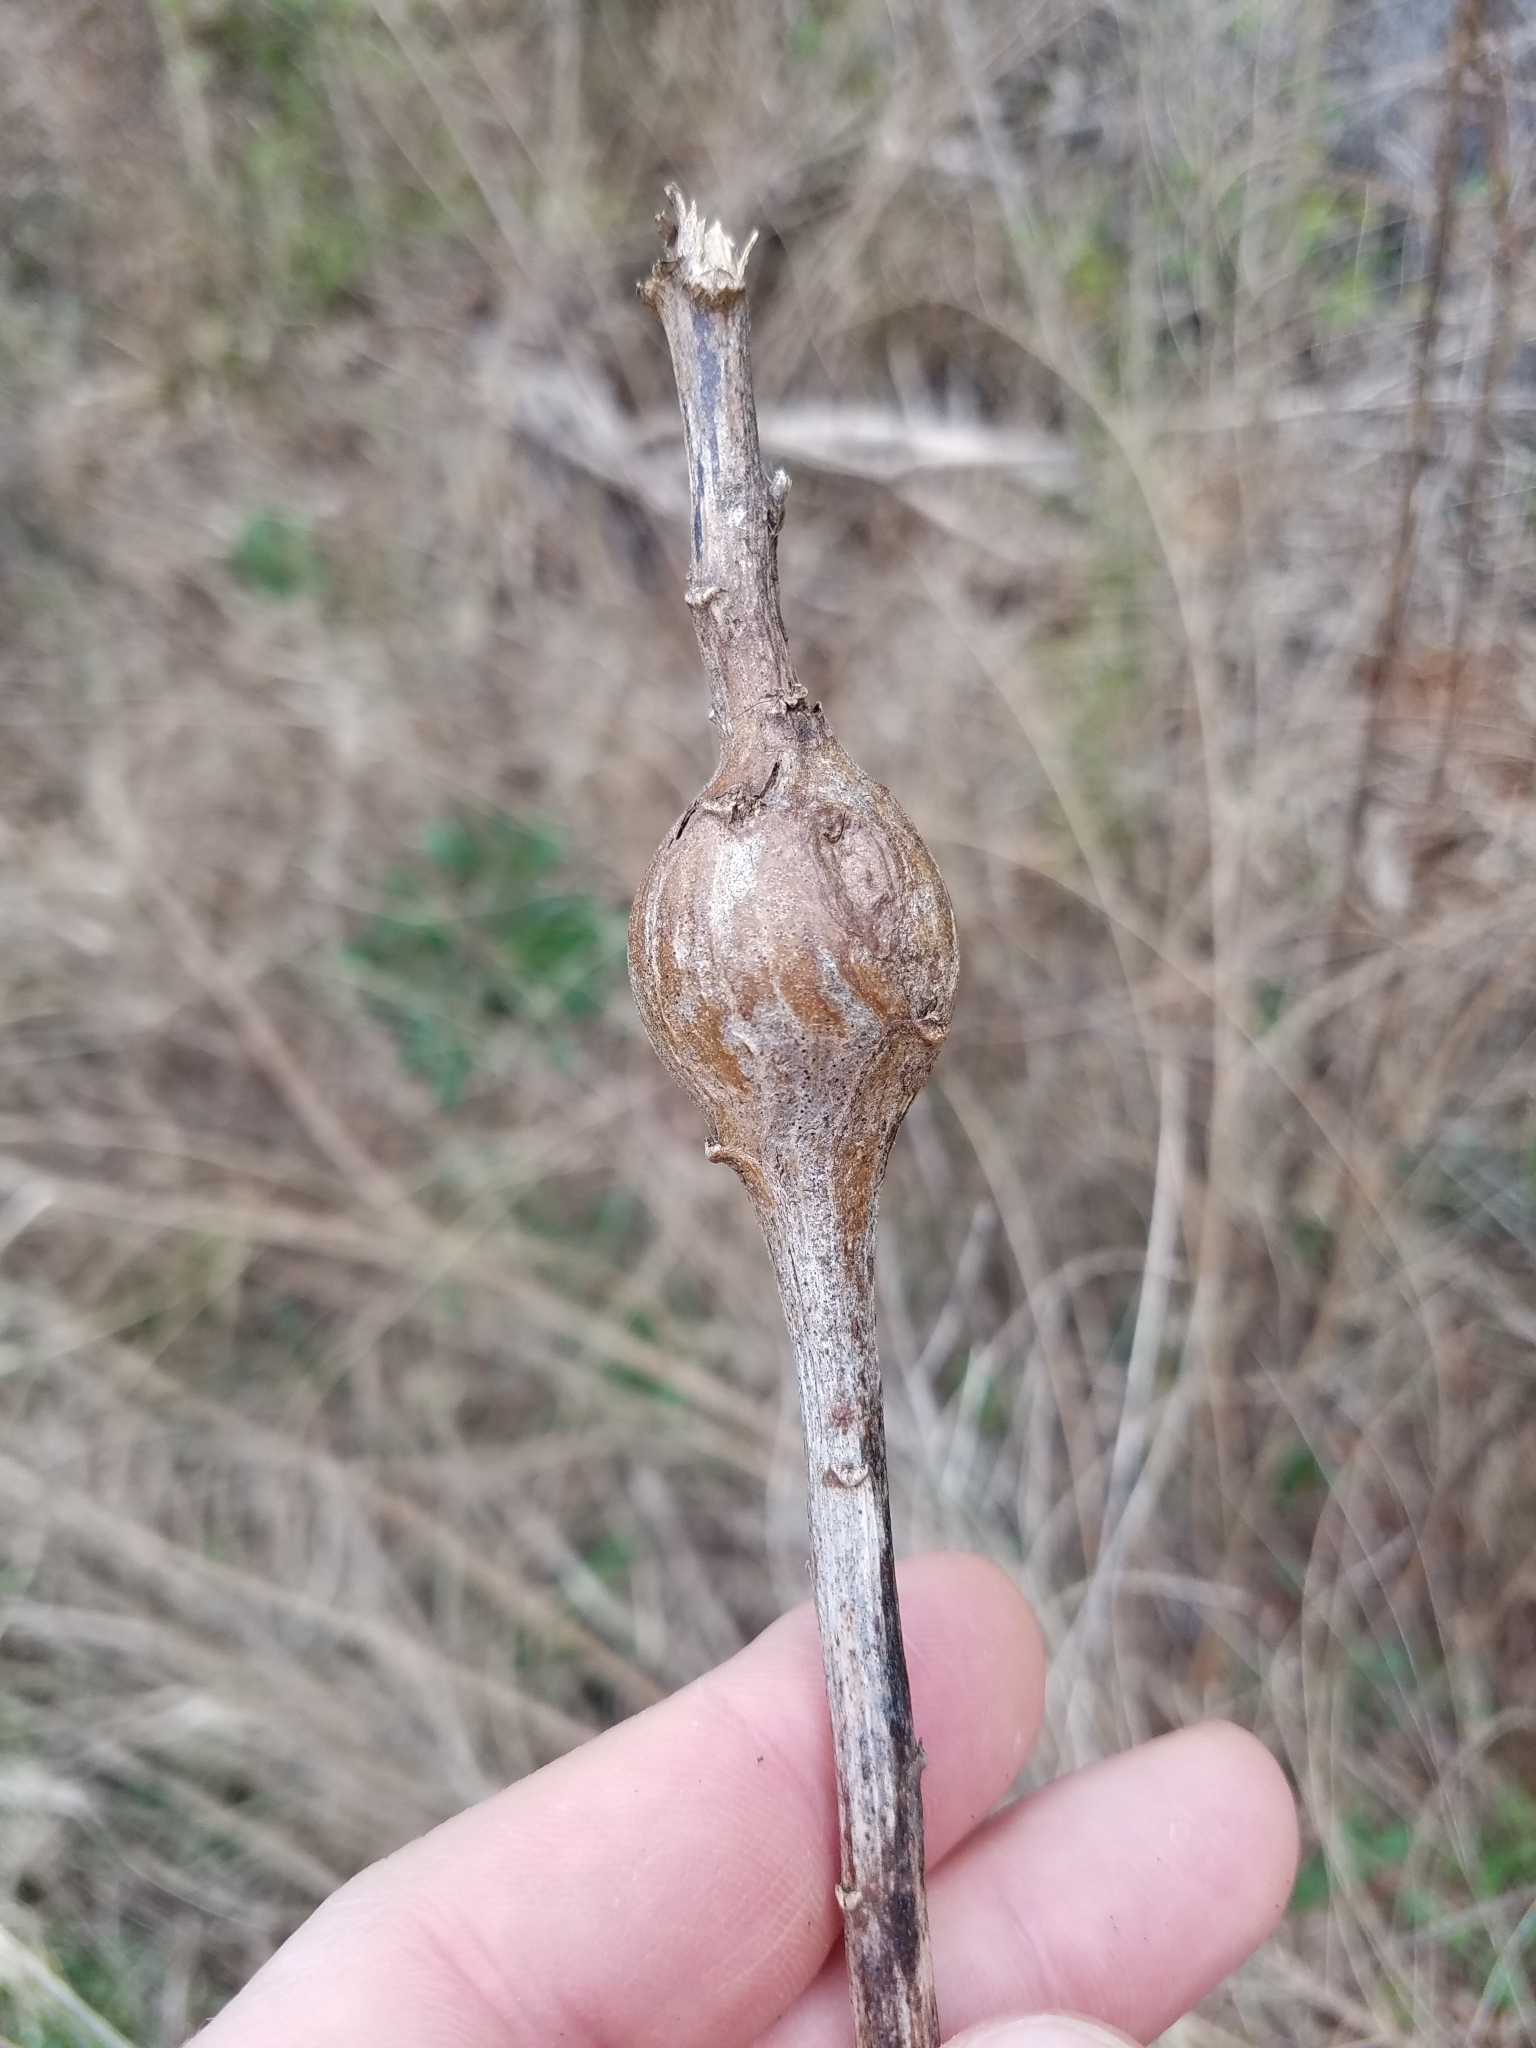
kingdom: Animalia
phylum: Arthropoda
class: Insecta
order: Diptera
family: Tephritidae
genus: Eurosta
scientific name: Eurosta solidaginis
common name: Goldenrod gall fly
